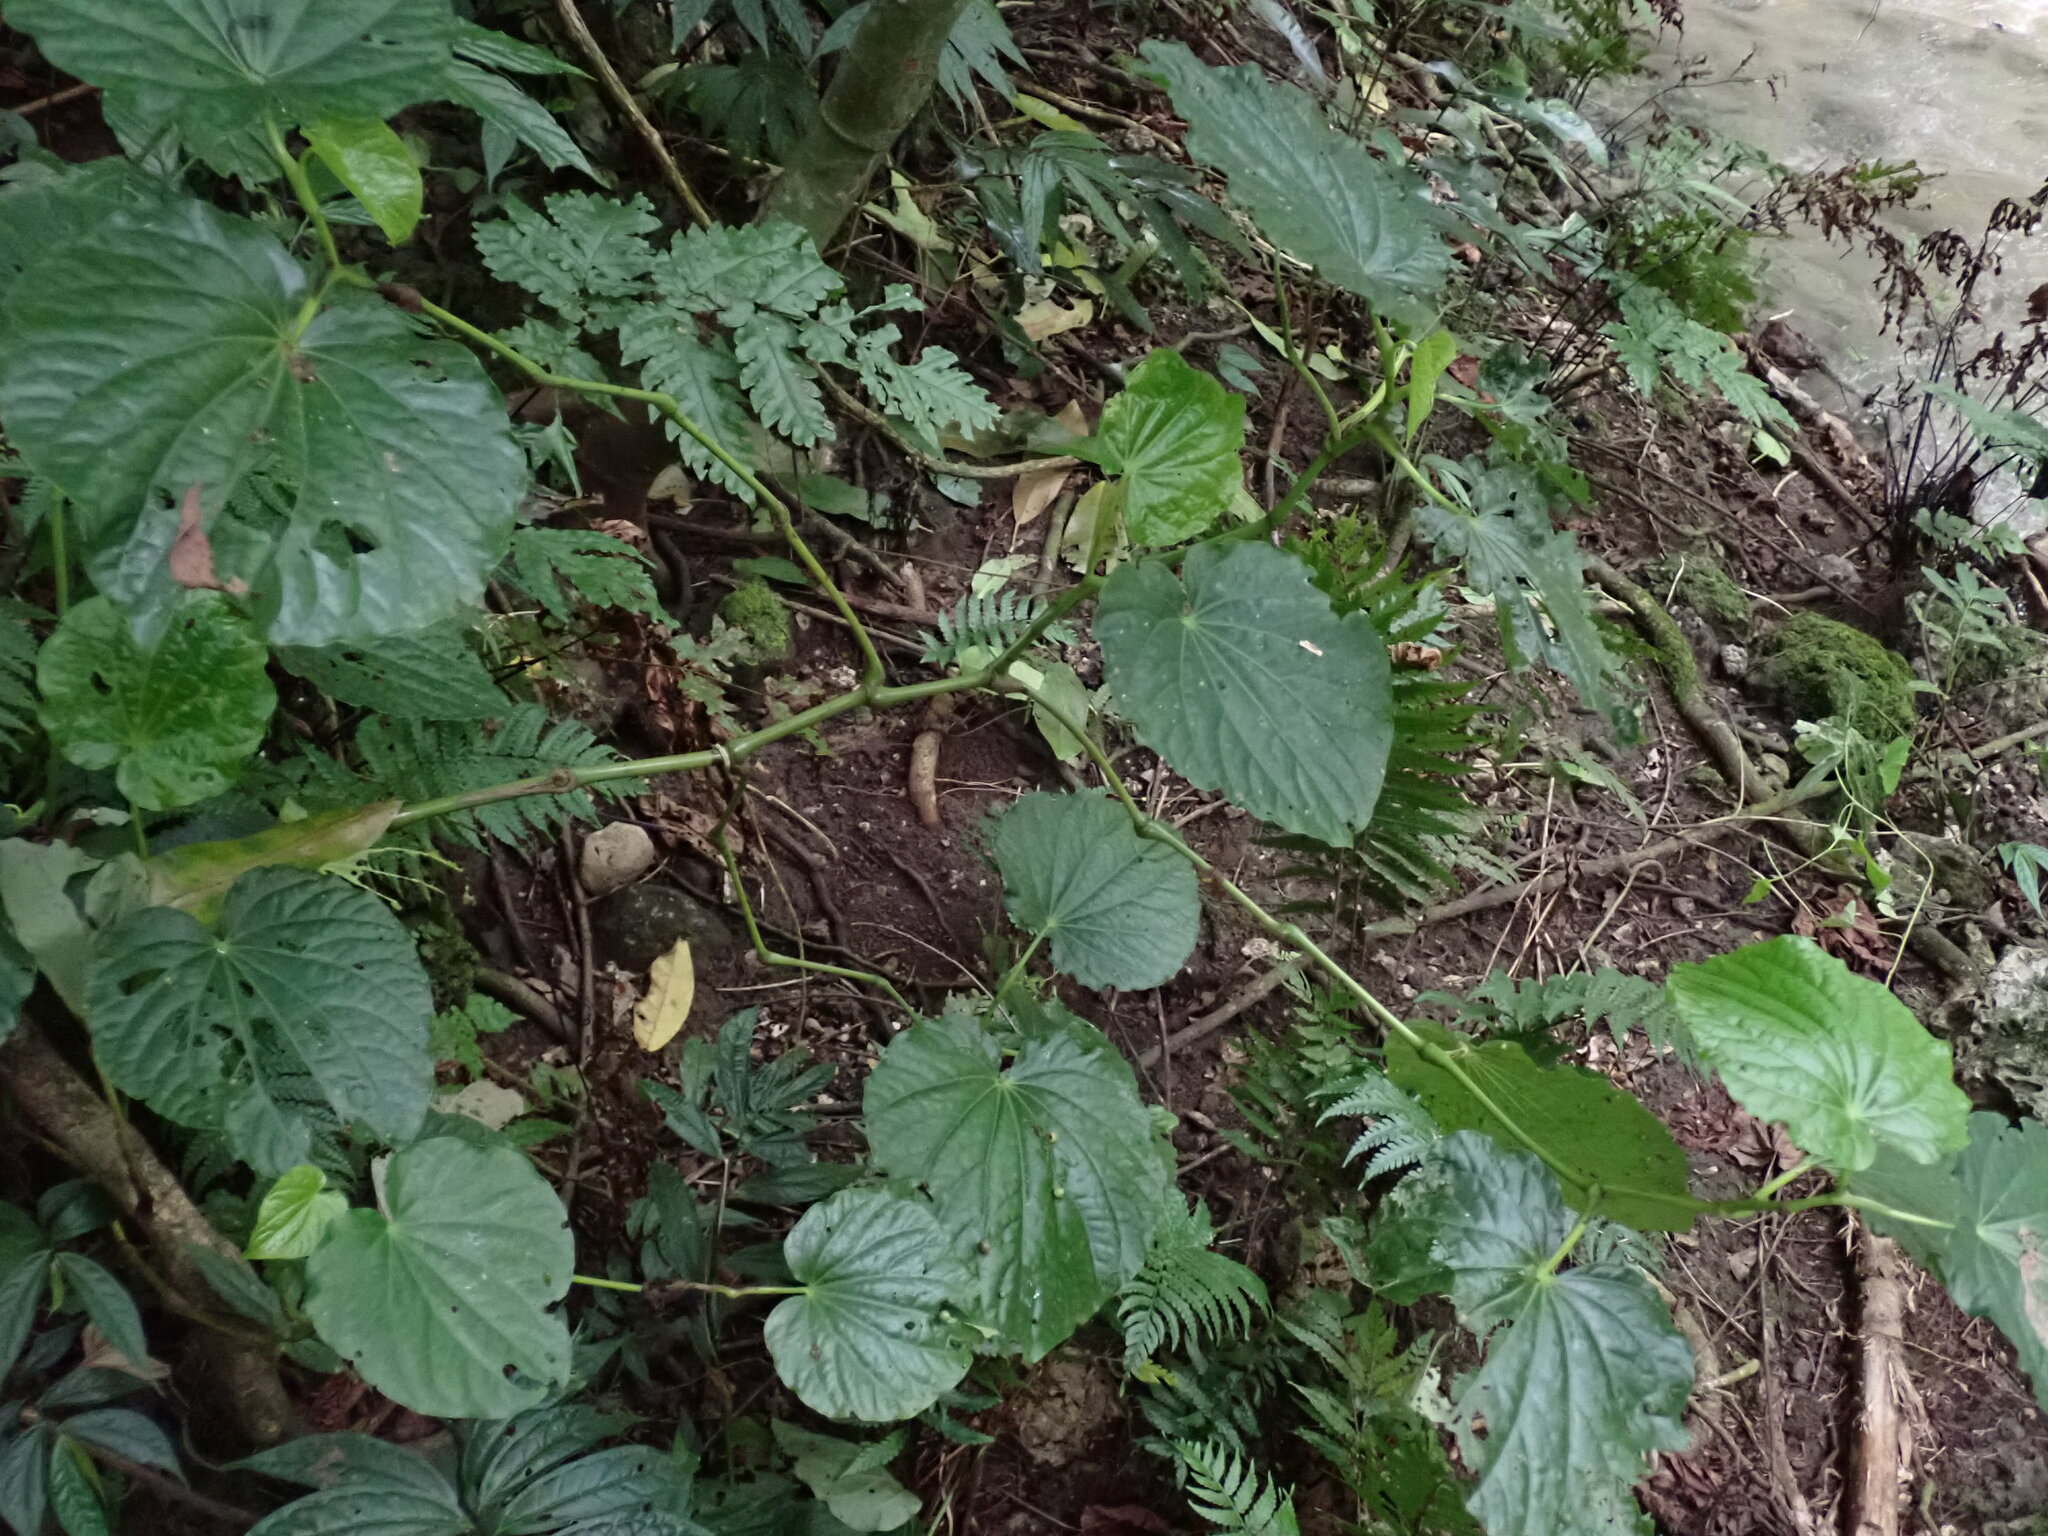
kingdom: Plantae
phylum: Tracheophyta
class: Magnoliopsida
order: Piperales
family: Piperaceae
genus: Piper
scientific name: Piper latifolium
